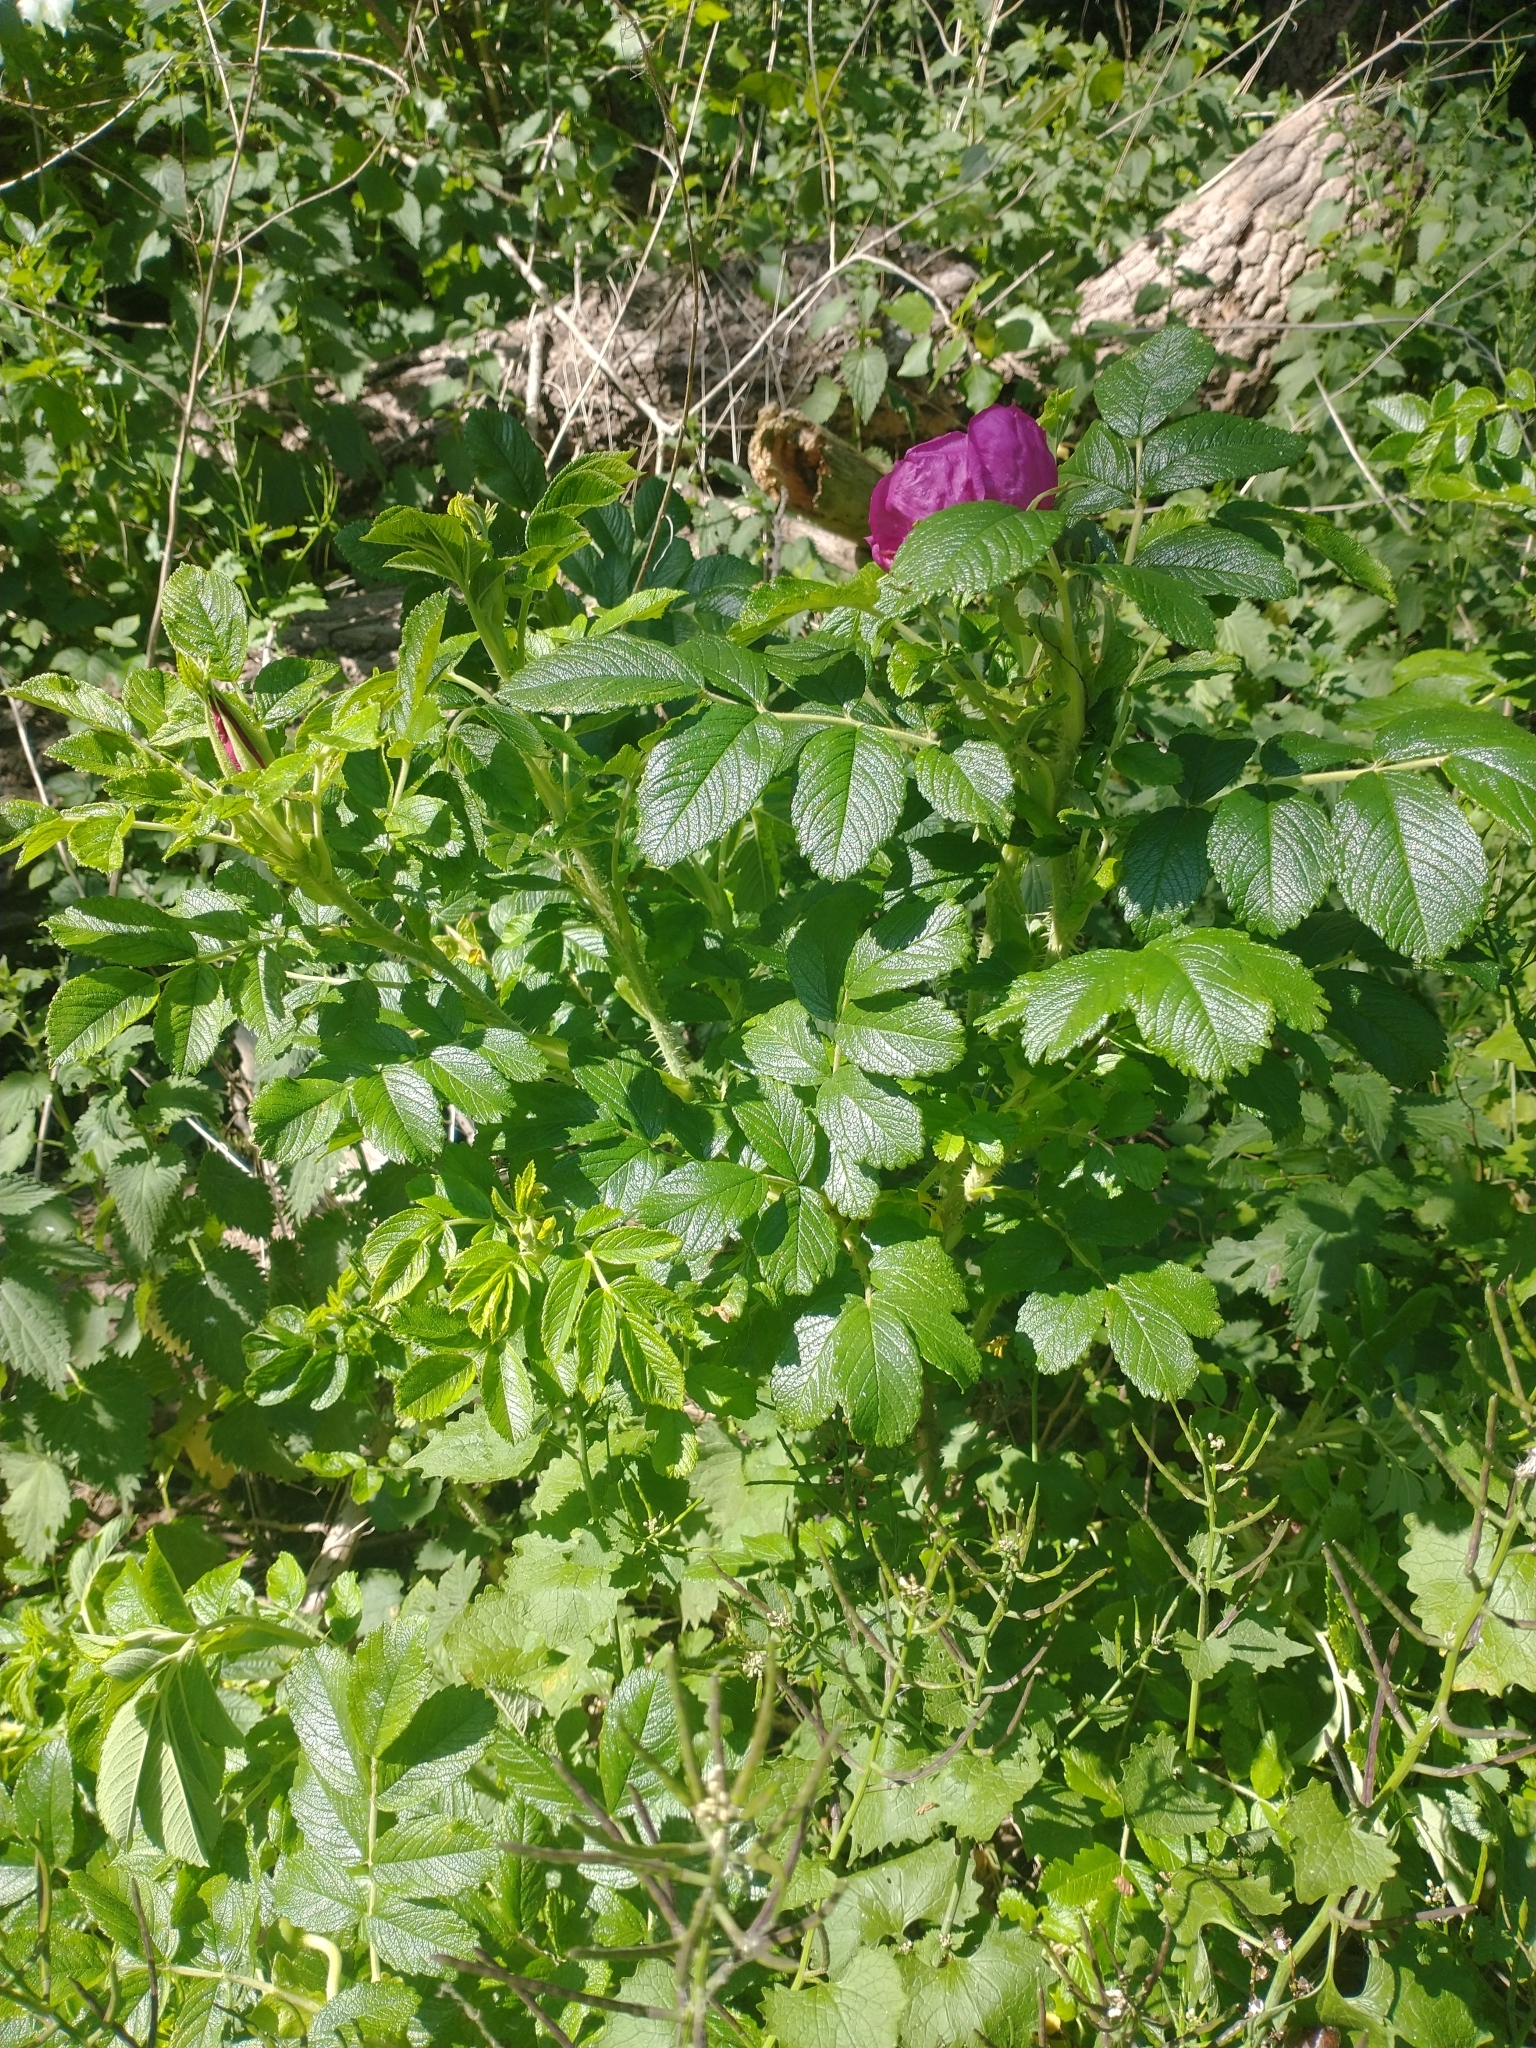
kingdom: Plantae
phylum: Tracheophyta
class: Magnoliopsida
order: Rosales
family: Rosaceae
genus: Rosa
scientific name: Rosa rugosa
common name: Japanese rose
